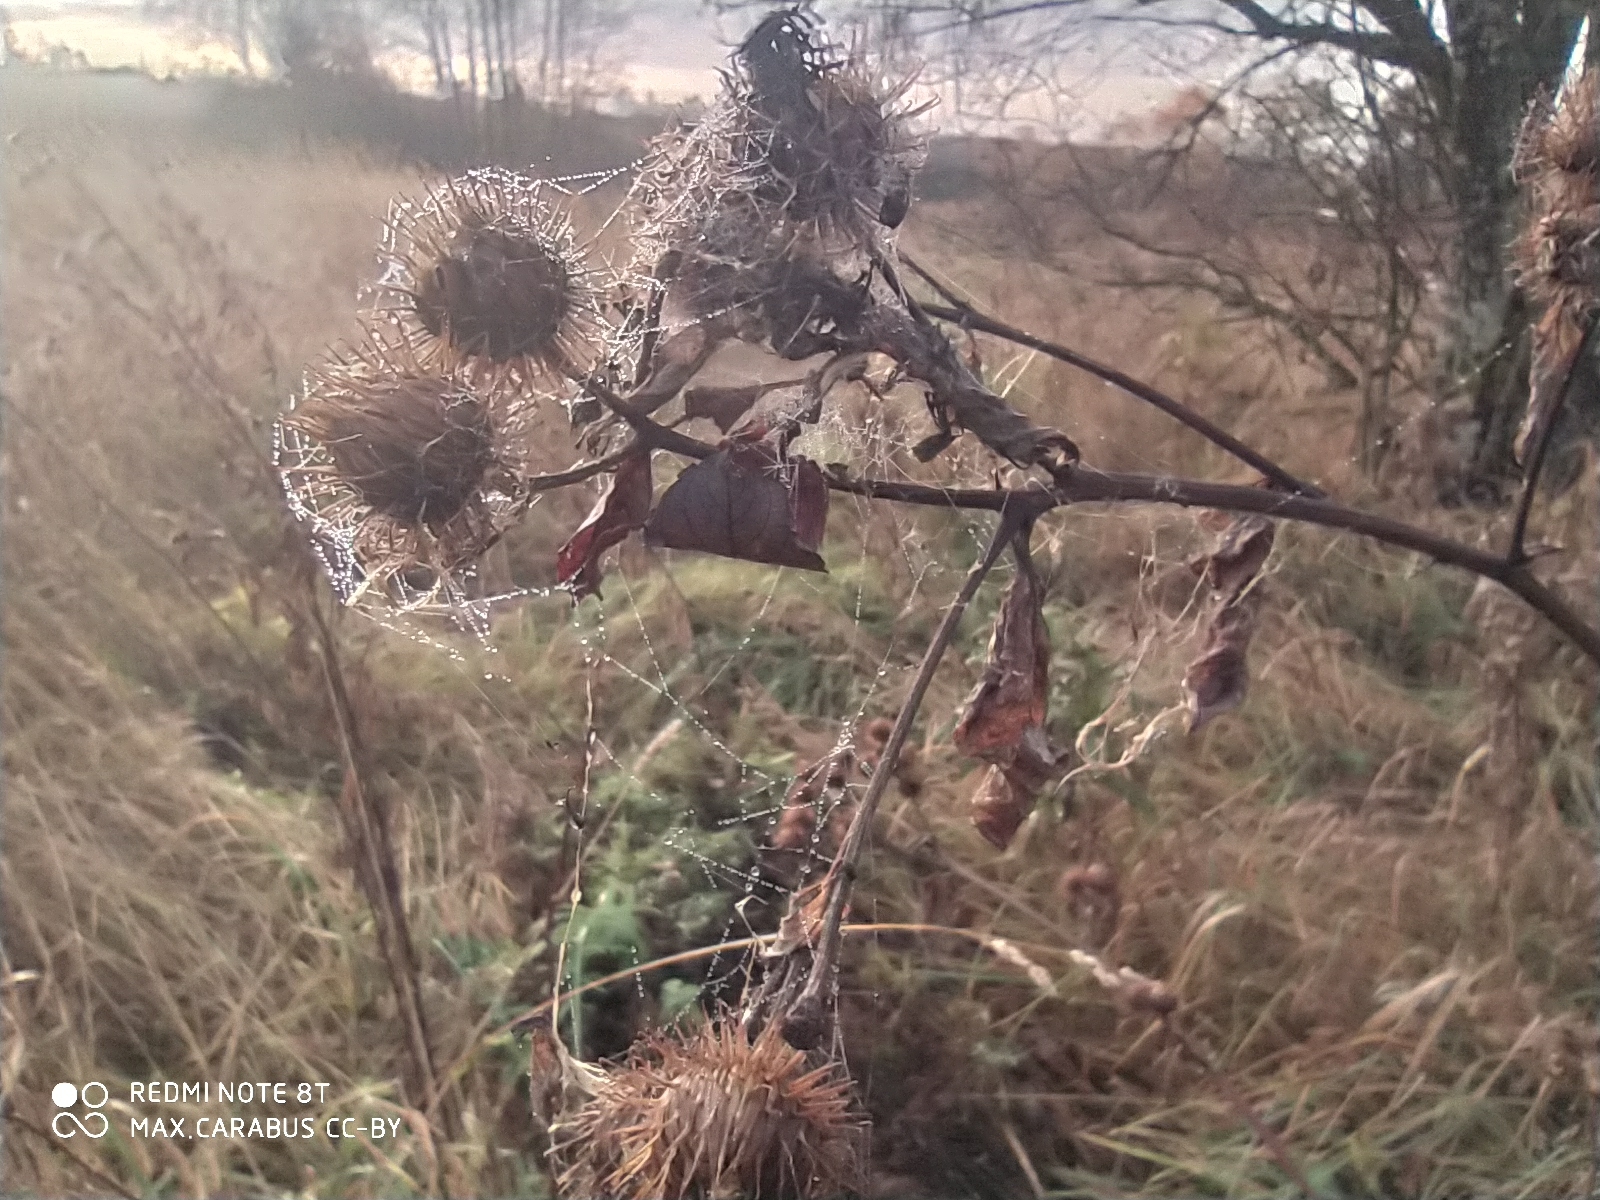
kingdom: Plantae
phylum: Tracheophyta
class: Magnoliopsida
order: Asterales
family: Asteraceae
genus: Arctium
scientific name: Arctium tomentosum
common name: Woolly burdock
